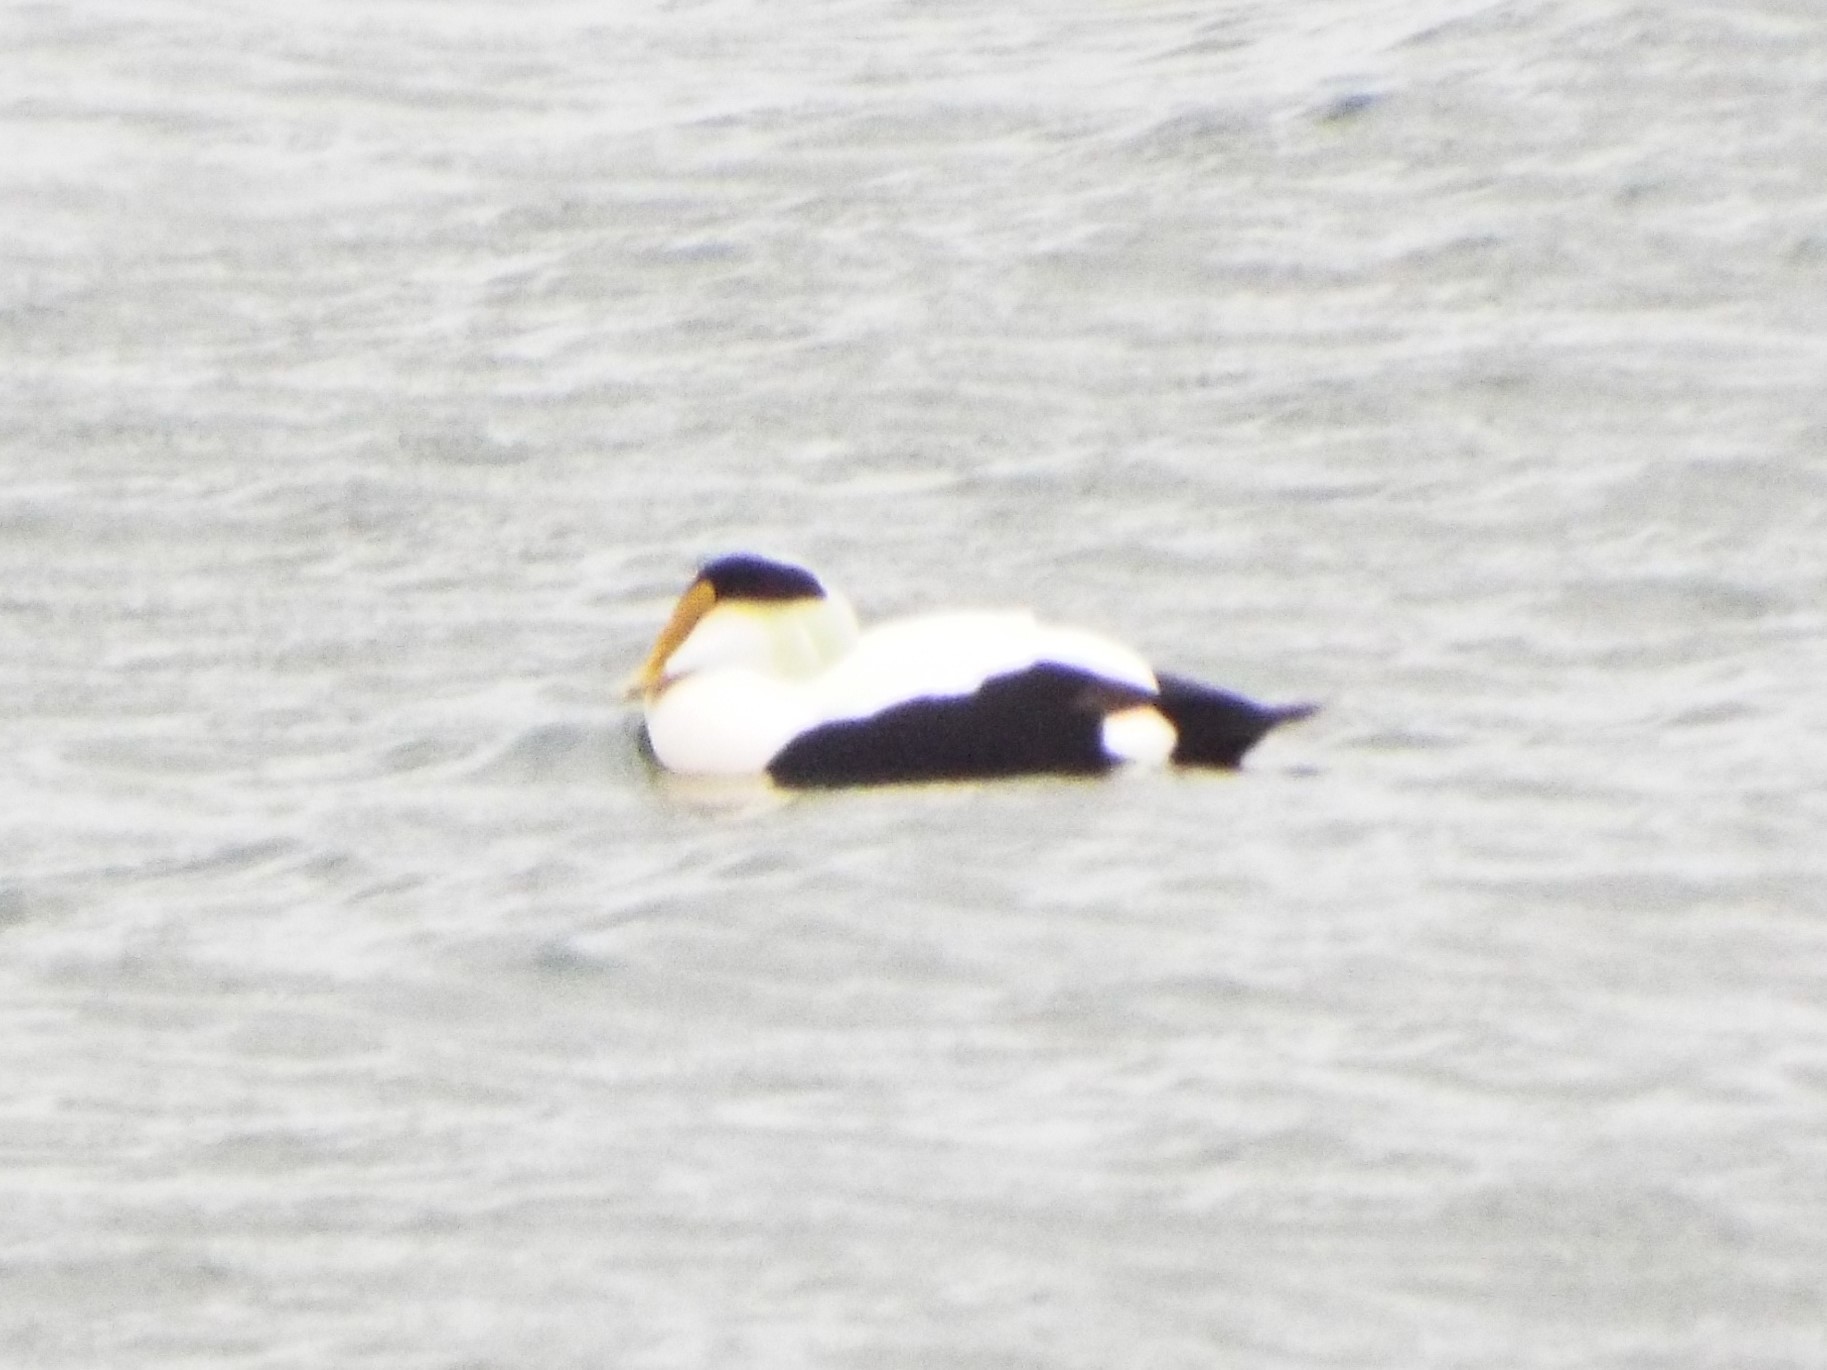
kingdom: Animalia
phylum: Chordata
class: Aves
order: Anseriformes
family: Anatidae
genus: Somateria
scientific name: Somateria mollissima
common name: Common eider
